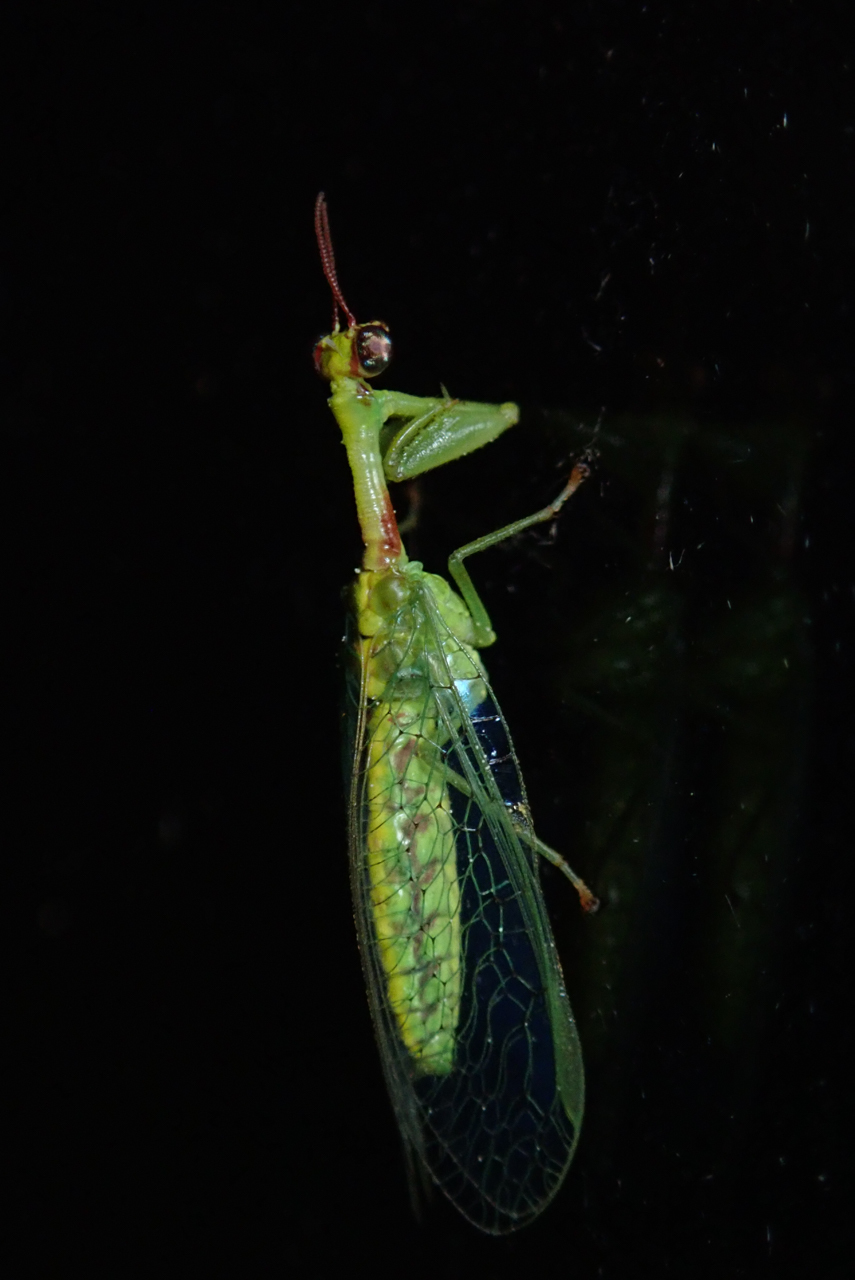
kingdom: Animalia
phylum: Arthropoda
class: Insecta
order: Neuroptera
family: Mantispidae
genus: Zeugomantispa
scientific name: Zeugomantispa minuta
